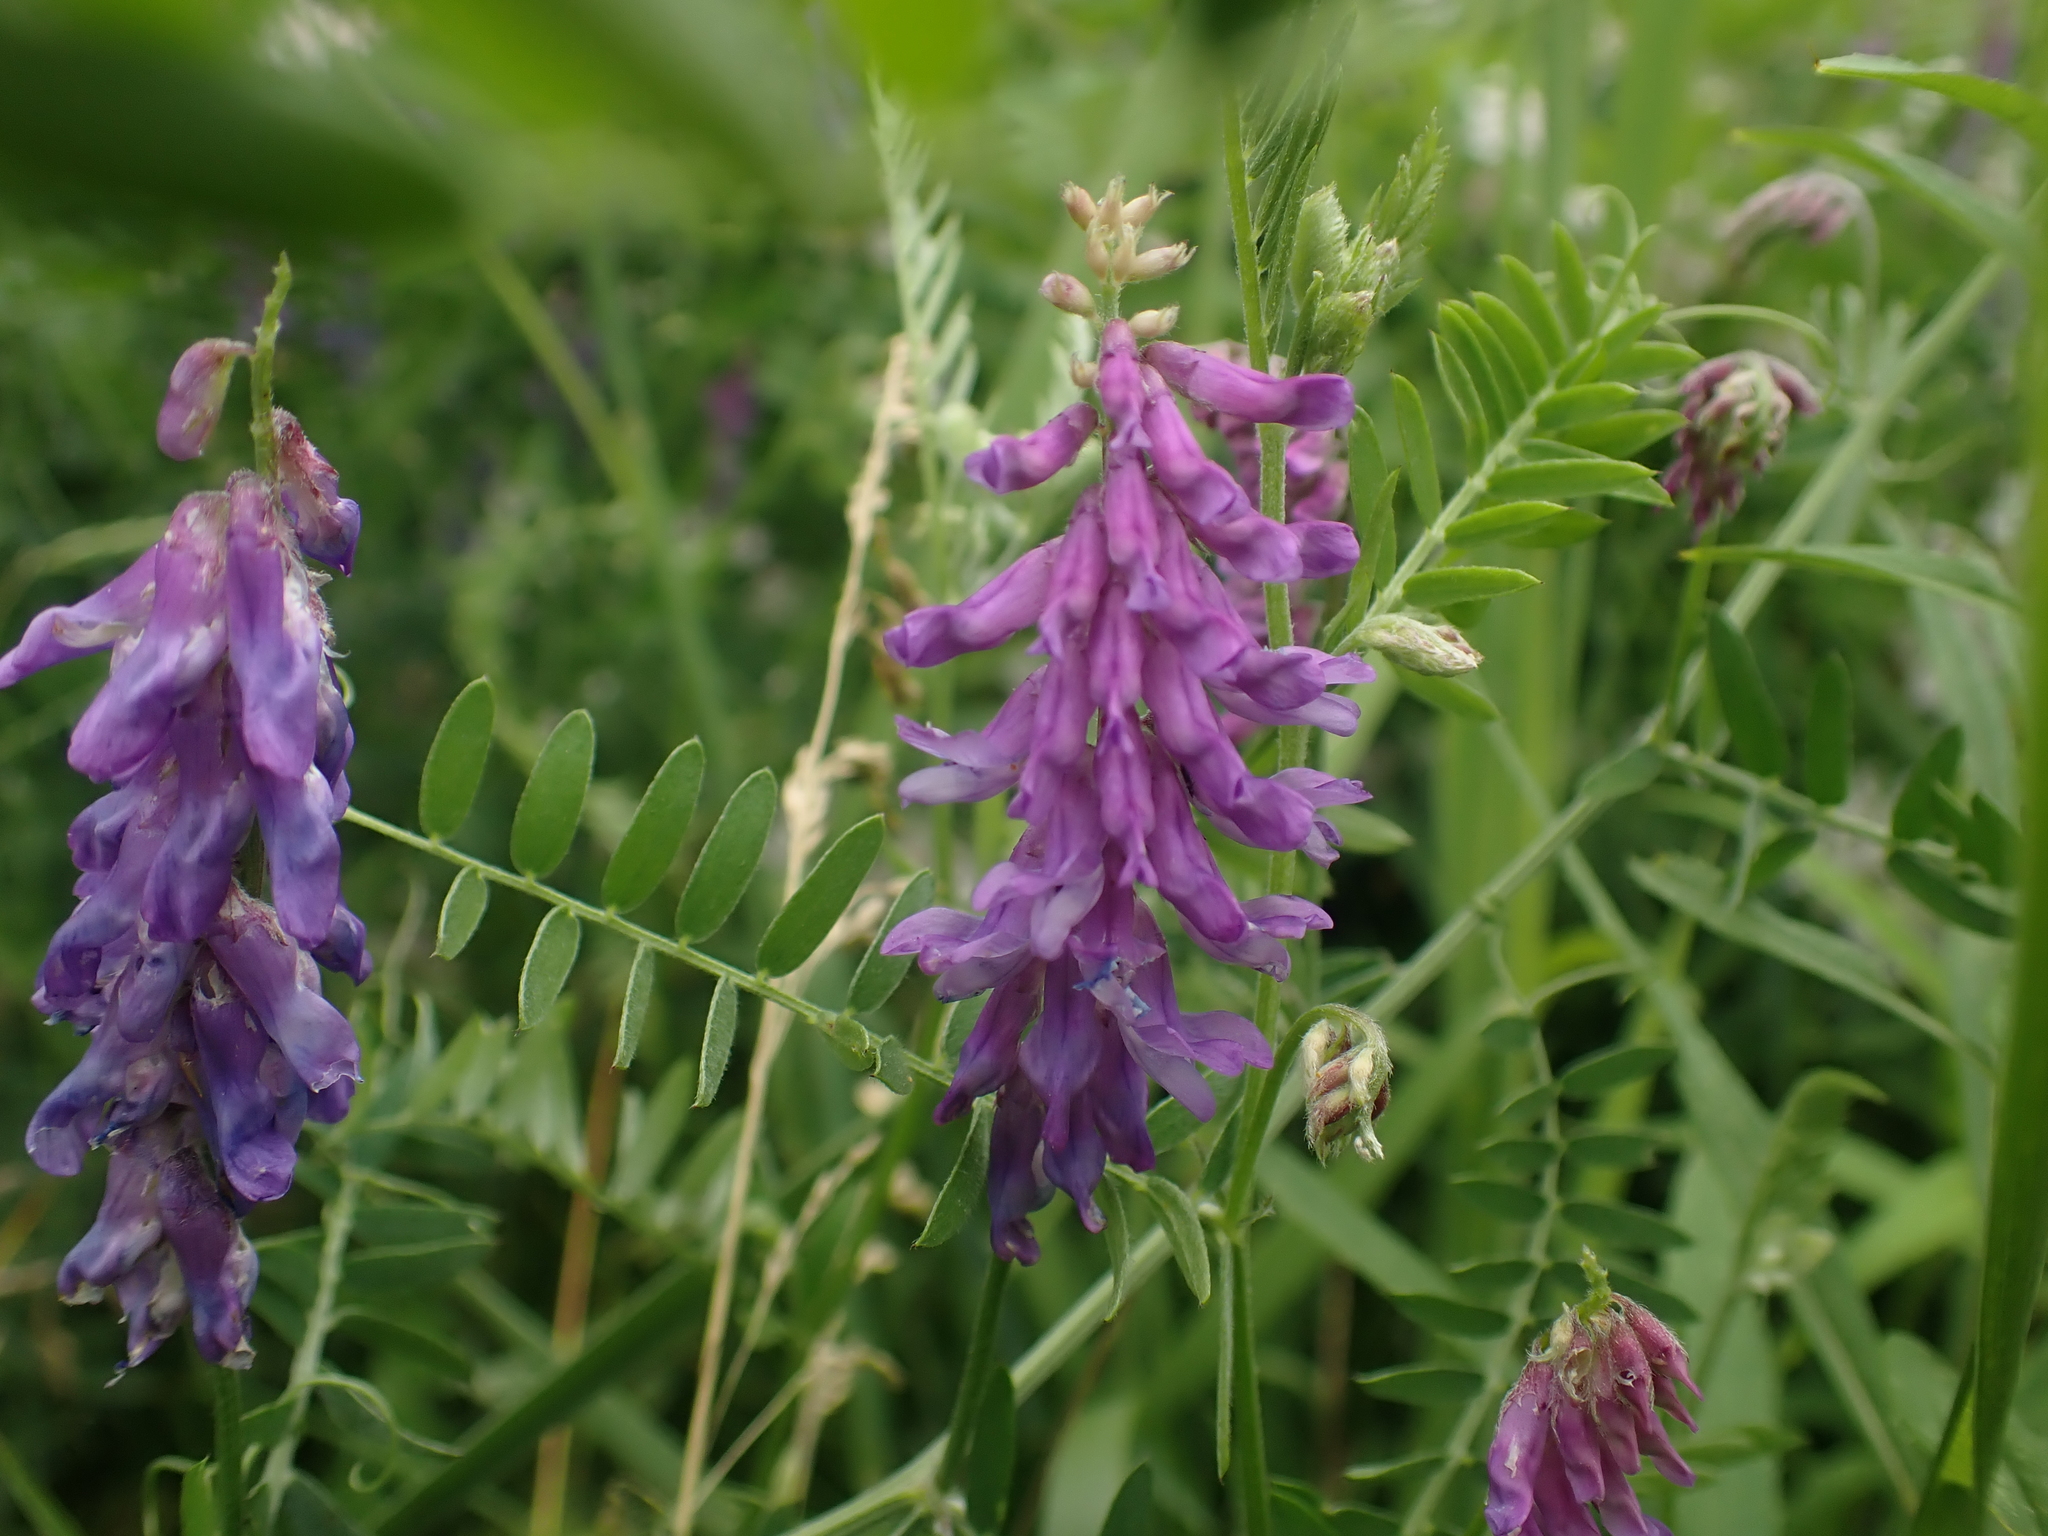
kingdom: Plantae
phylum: Tracheophyta
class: Magnoliopsida
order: Fabales
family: Fabaceae
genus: Vicia
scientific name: Vicia cracca
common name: Bird vetch
